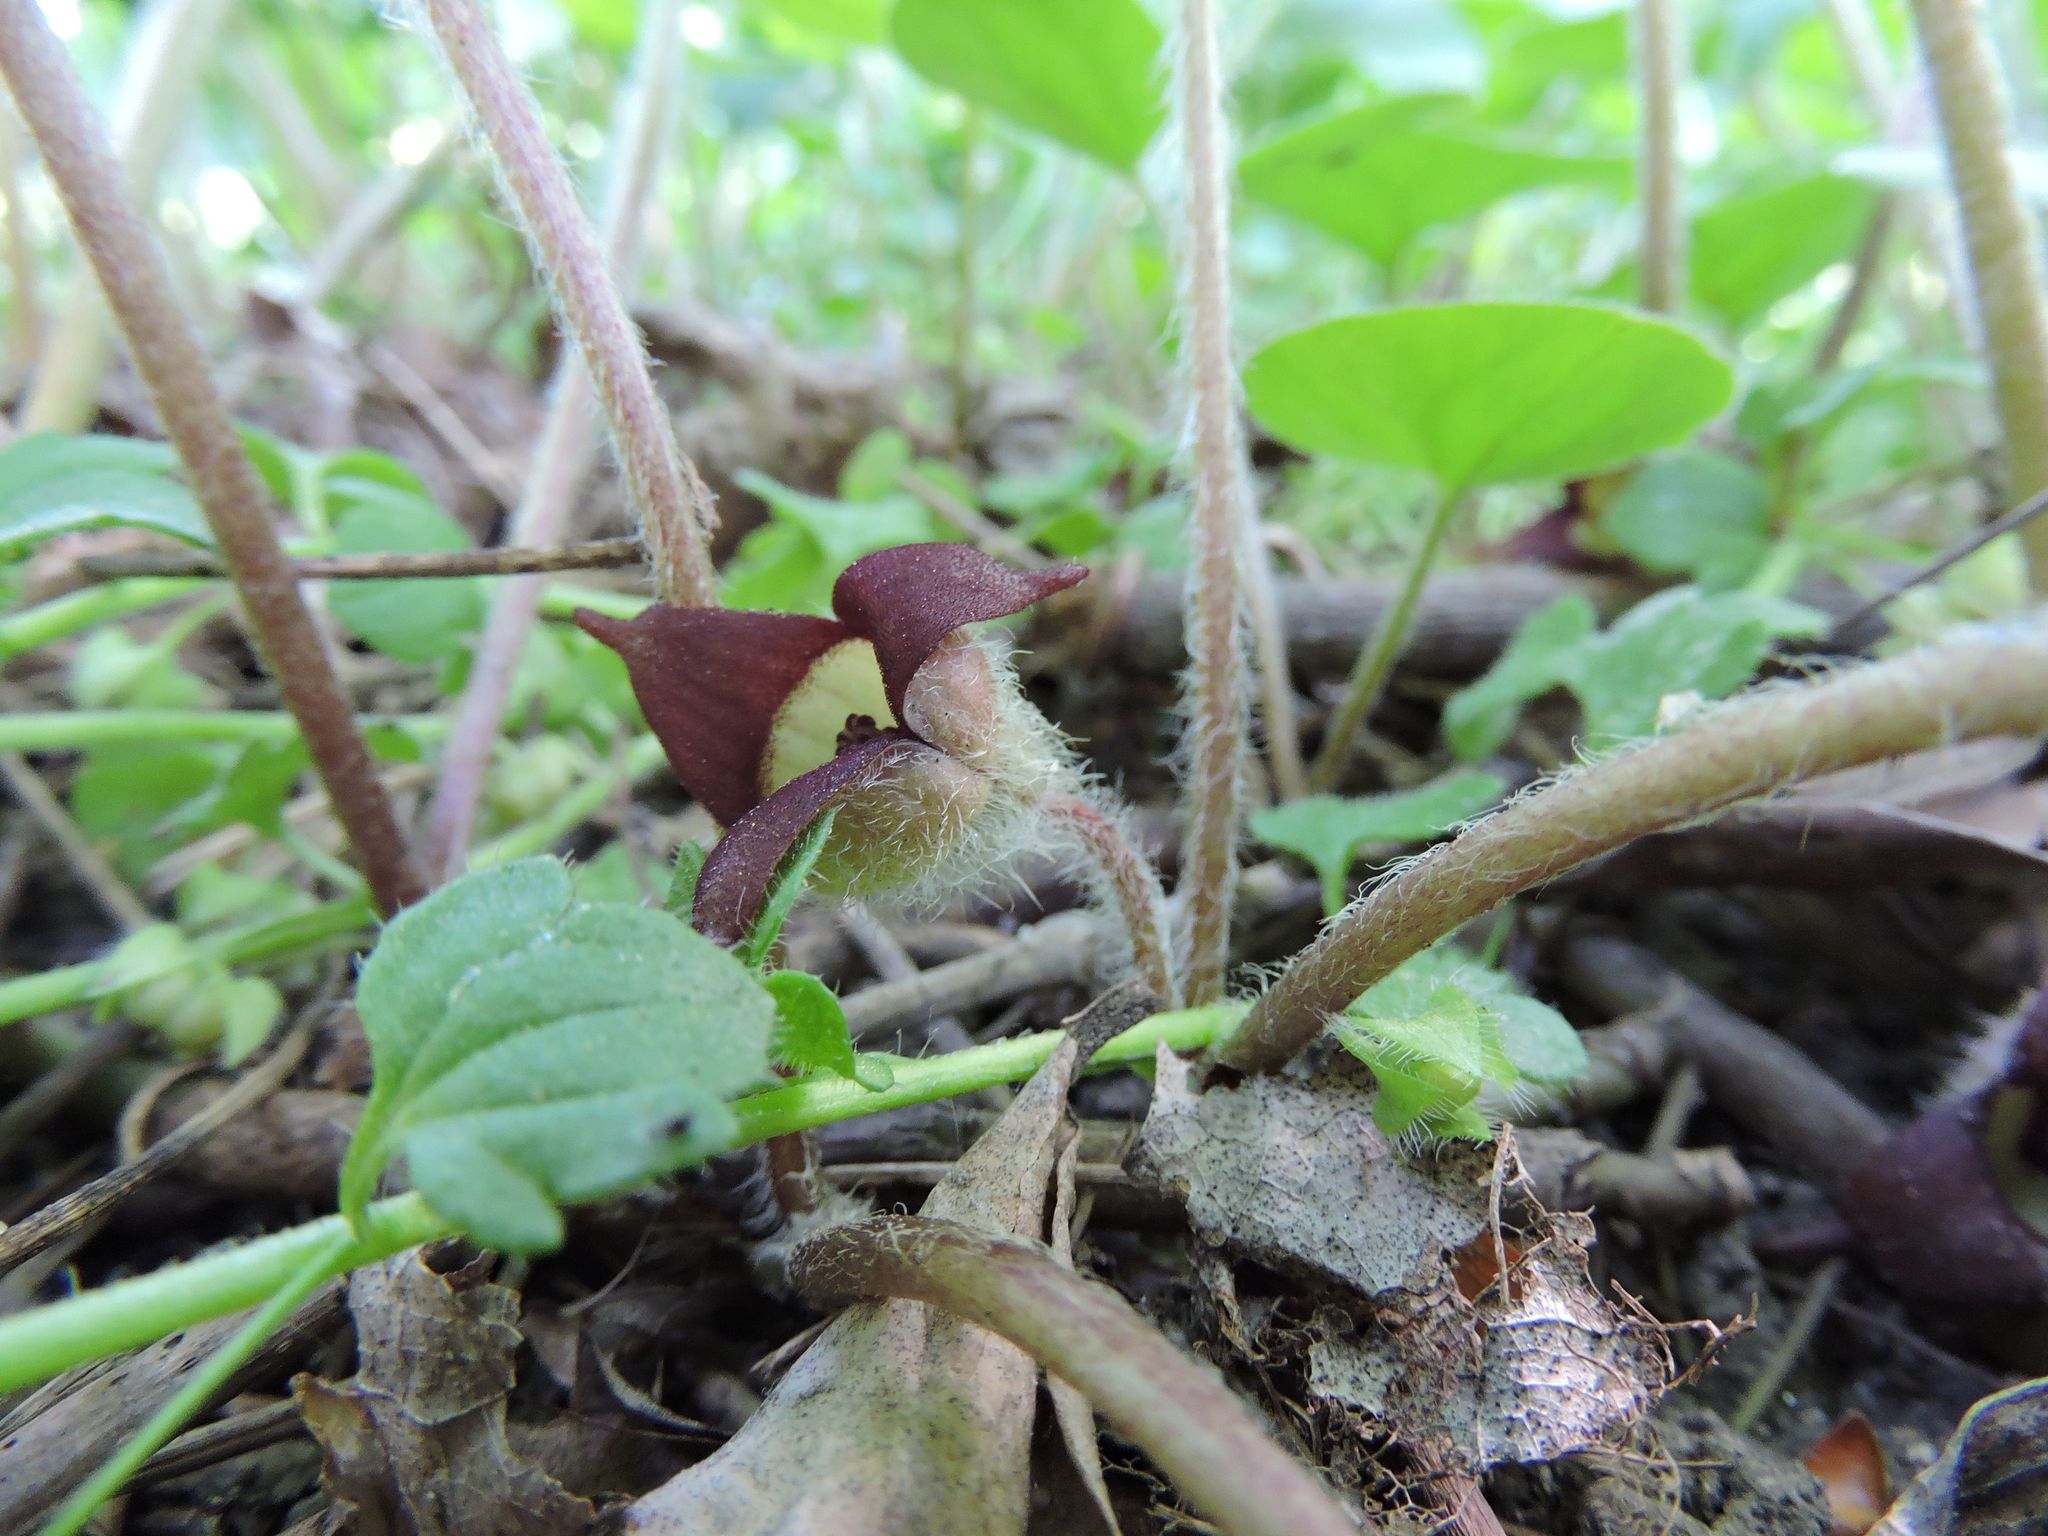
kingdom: Plantae
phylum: Tracheophyta
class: Magnoliopsida
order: Piperales
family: Aristolochiaceae
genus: Asarum
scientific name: Asarum canadense
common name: Wild ginger
